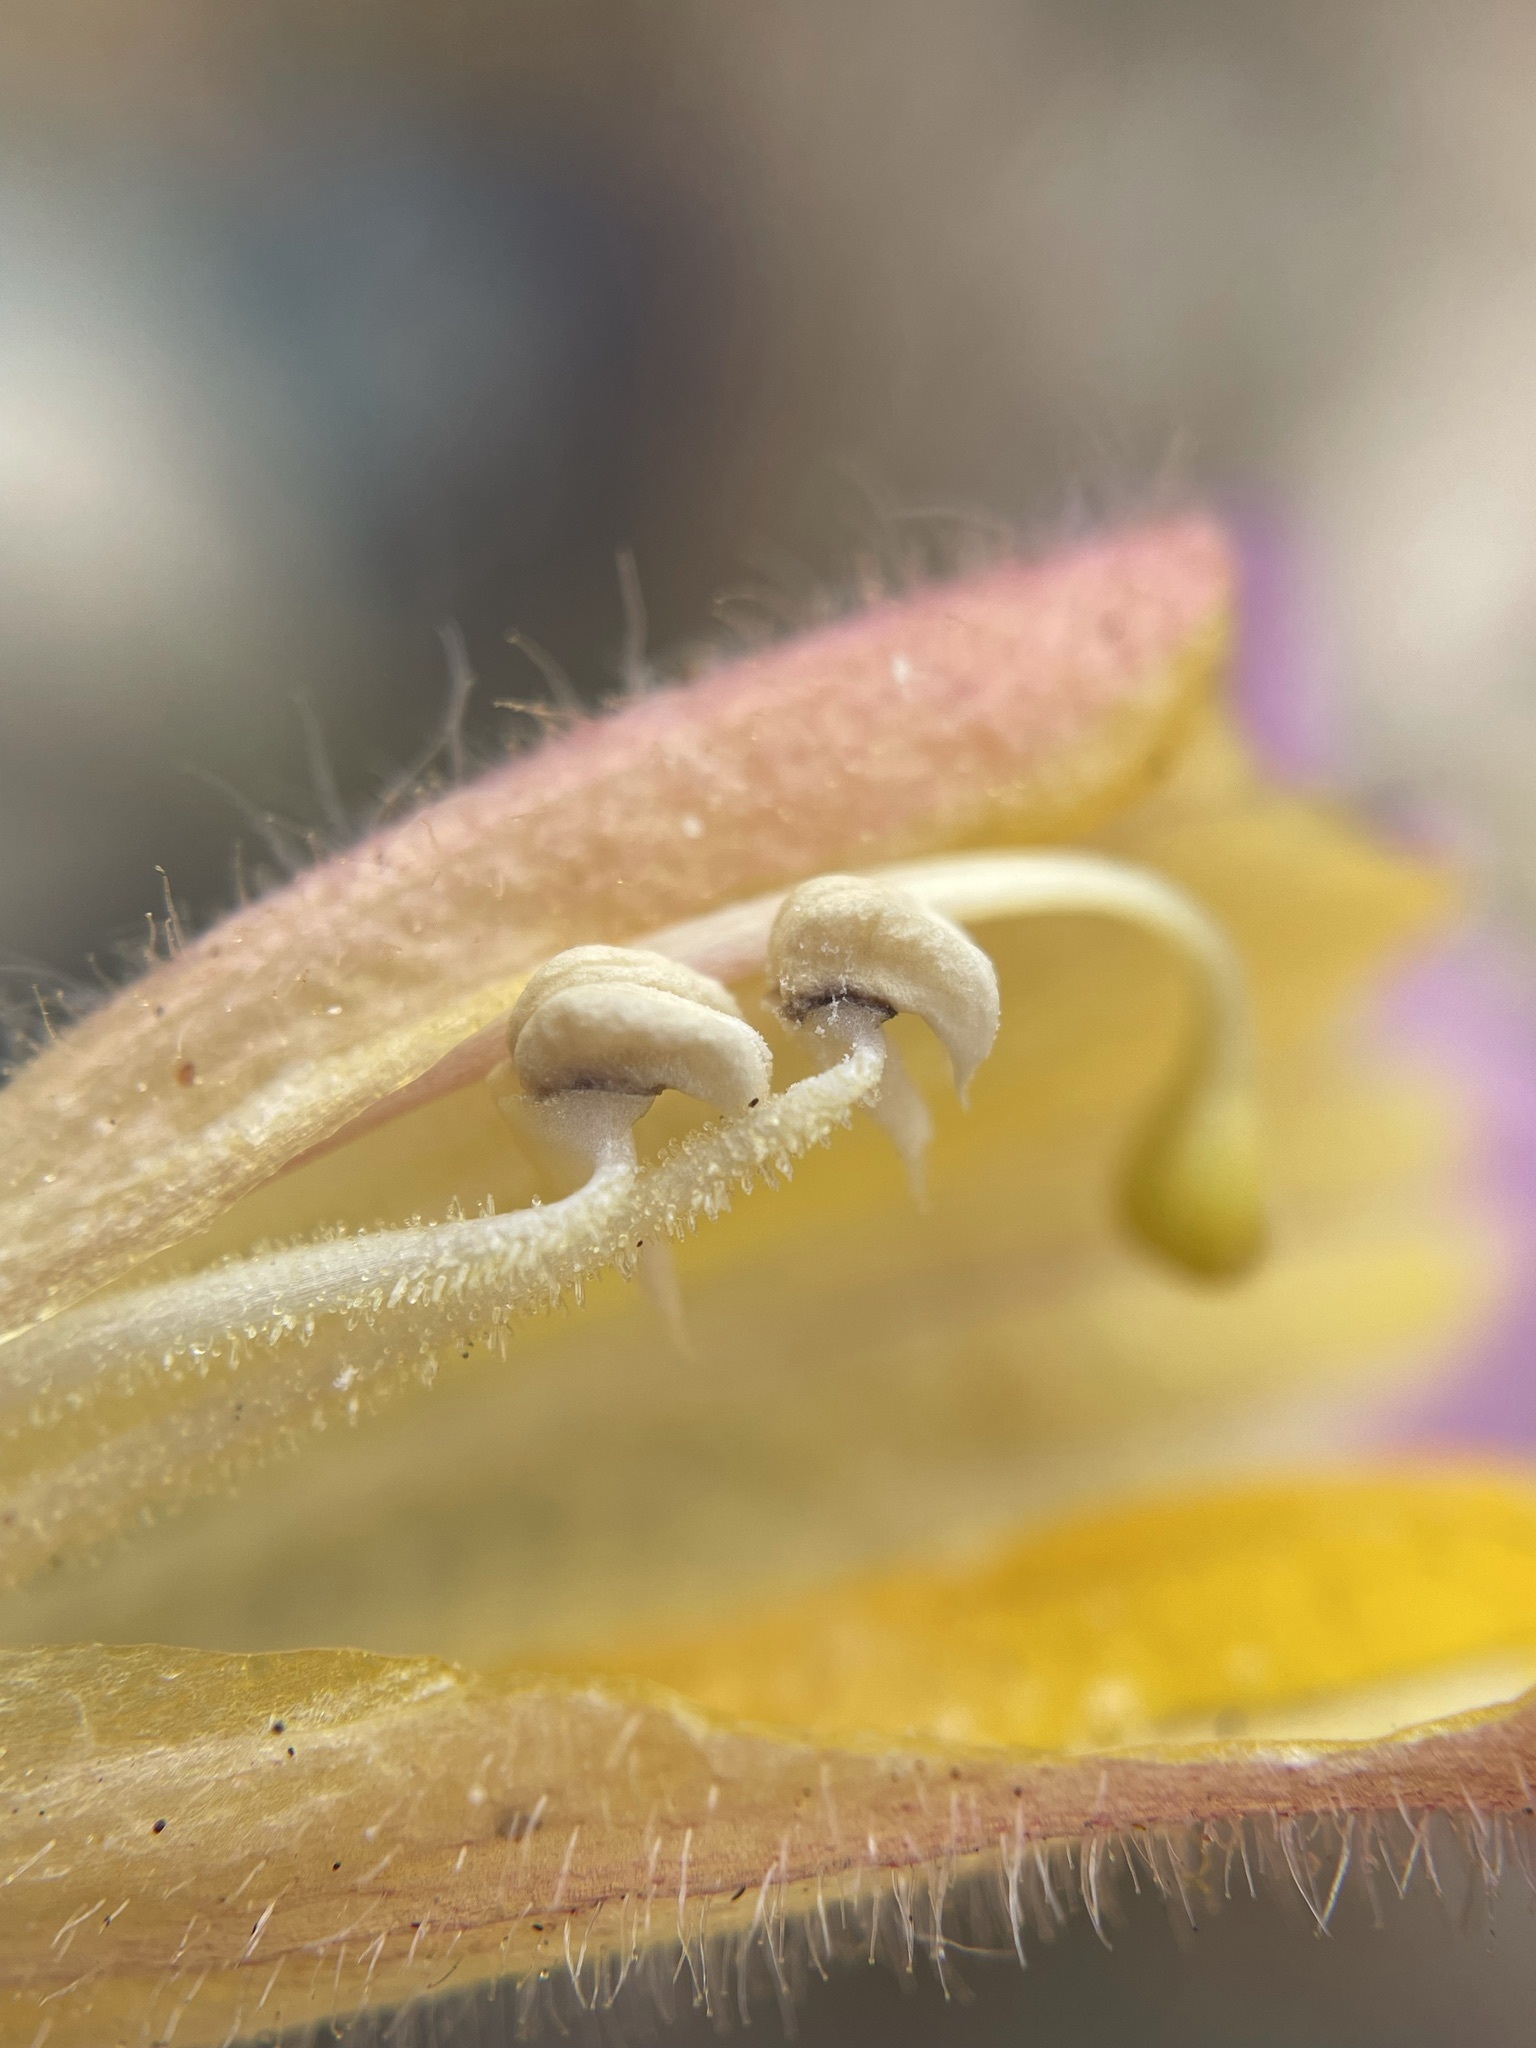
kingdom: Plantae
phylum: Tracheophyta
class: Magnoliopsida
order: Lamiales
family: Orobanchaceae
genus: Harveya
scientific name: Harveya purpurea
